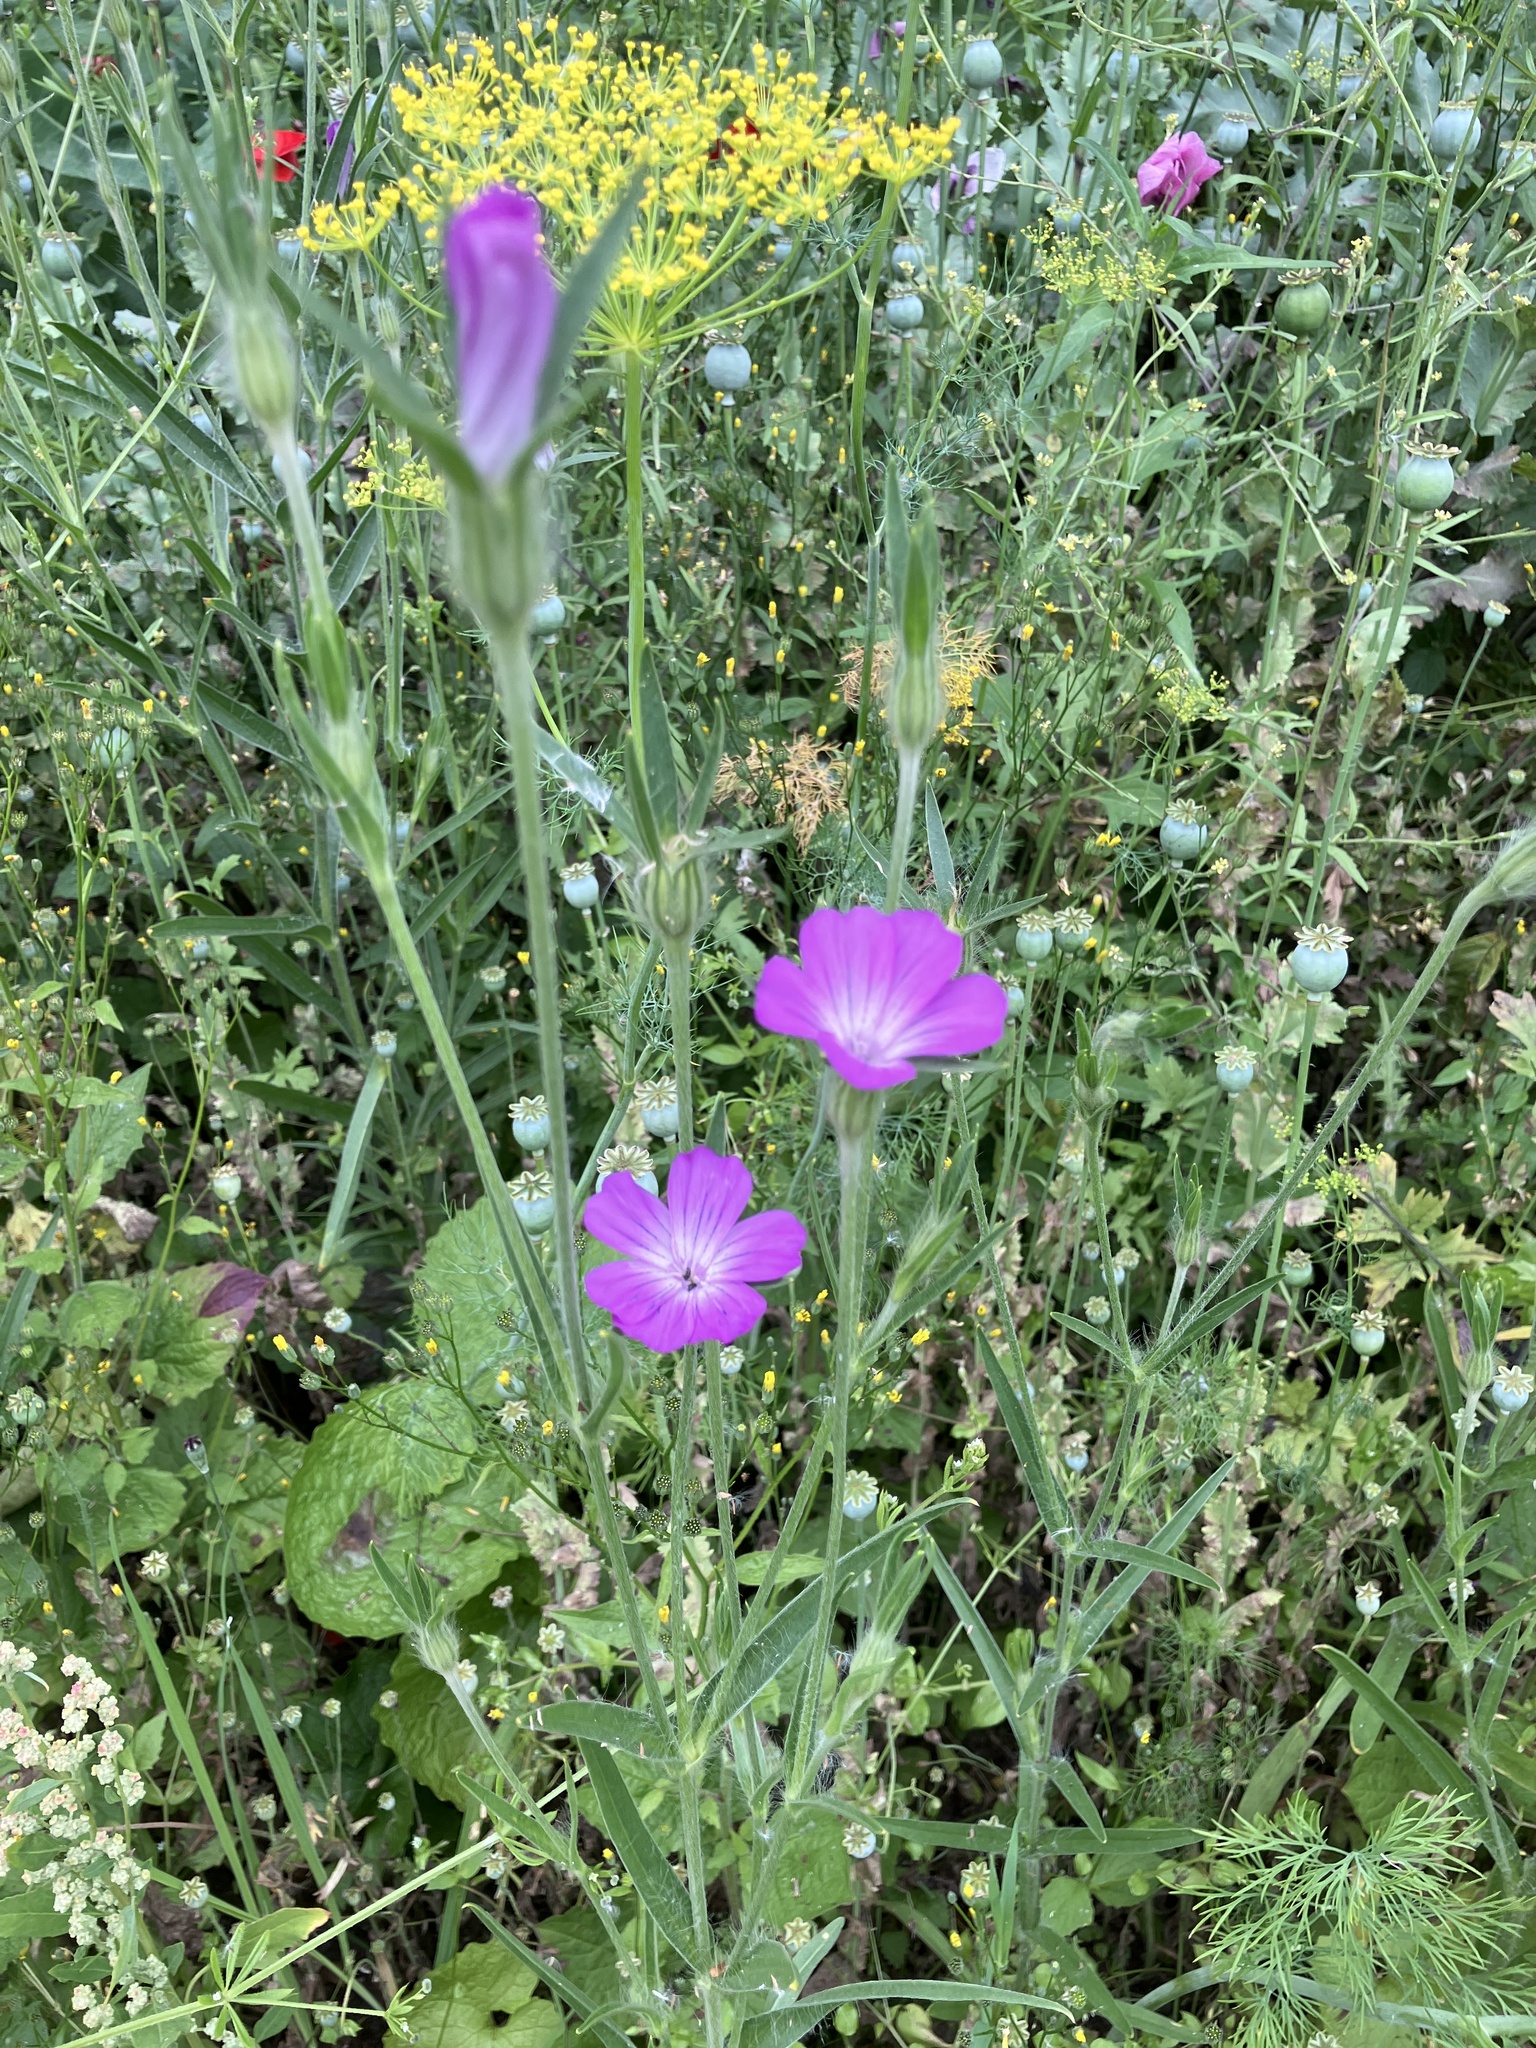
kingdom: Plantae
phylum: Tracheophyta
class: Magnoliopsida
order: Caryophyllales
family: Caryophyllaceae
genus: Agrostemma
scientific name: Agrostemma githago
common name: Common corncockle
